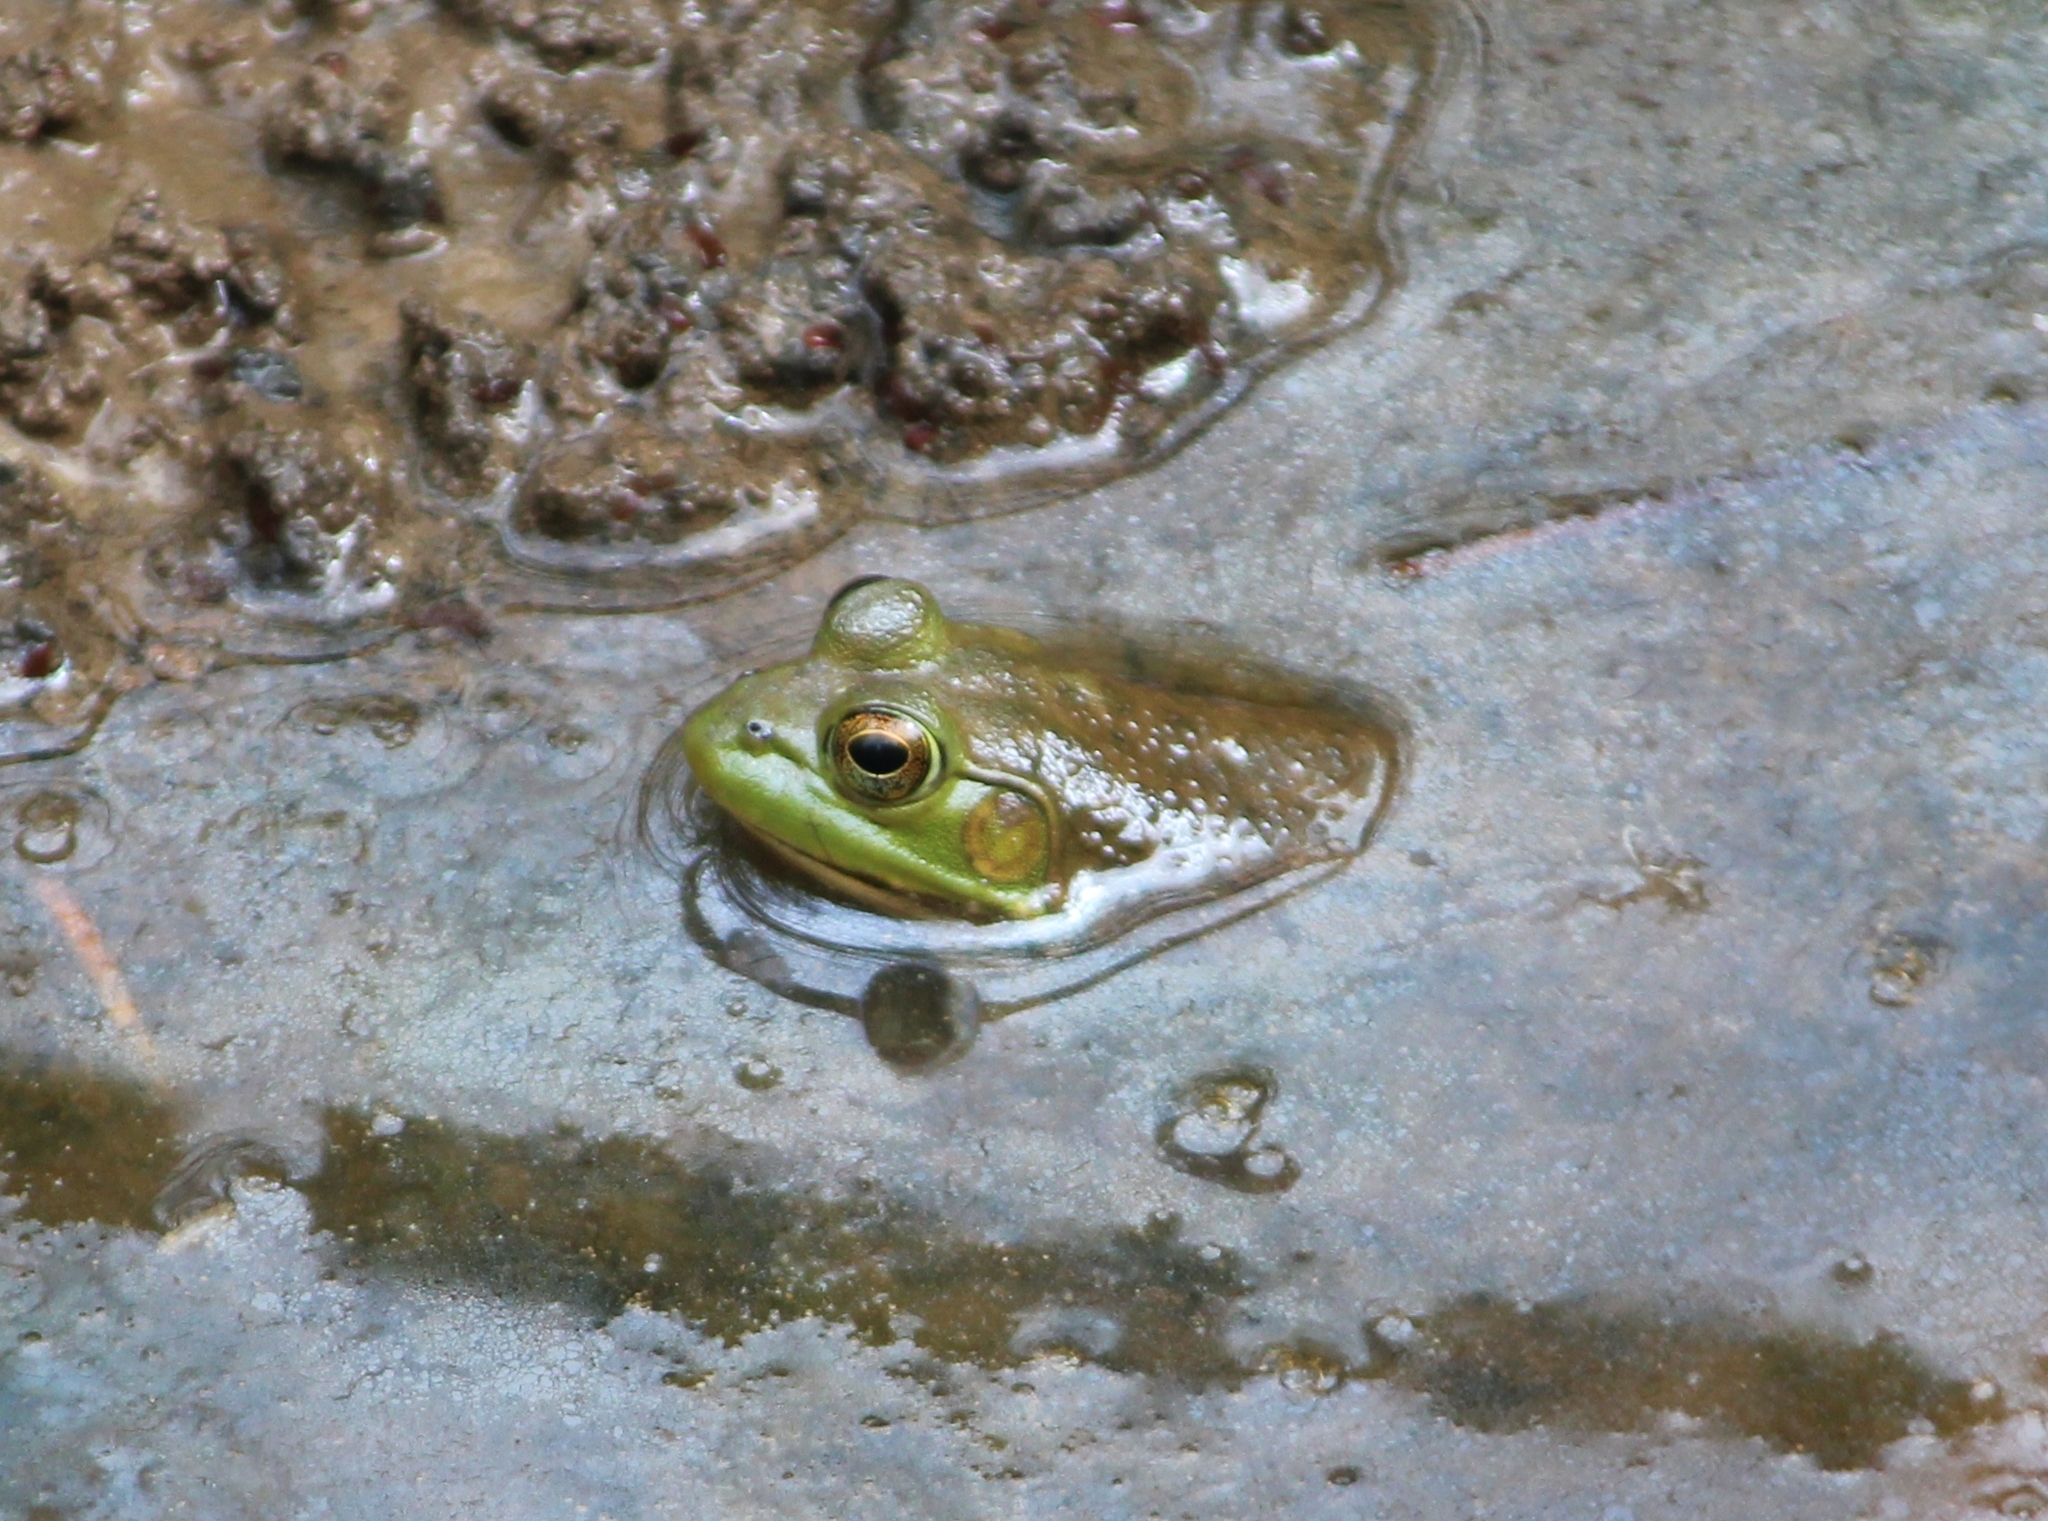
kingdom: Animalia
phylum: Chordata
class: Amphibia
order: Anura
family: Ranidae
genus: Lithobates
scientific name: Lithobates catesbeianus
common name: American bullfrog
